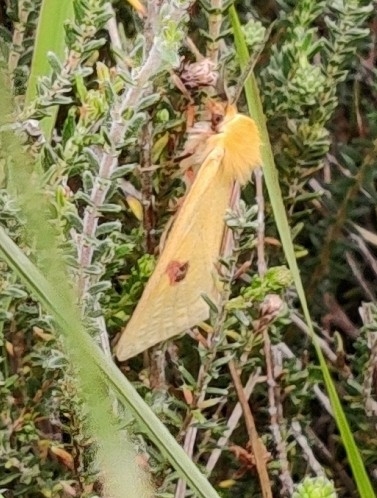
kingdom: Animalia
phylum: Arthropoda
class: Insecta
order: Lepidoptera
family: Erebidae
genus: Diacrisia
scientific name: Diacrisia sannio
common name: Clouded buff
